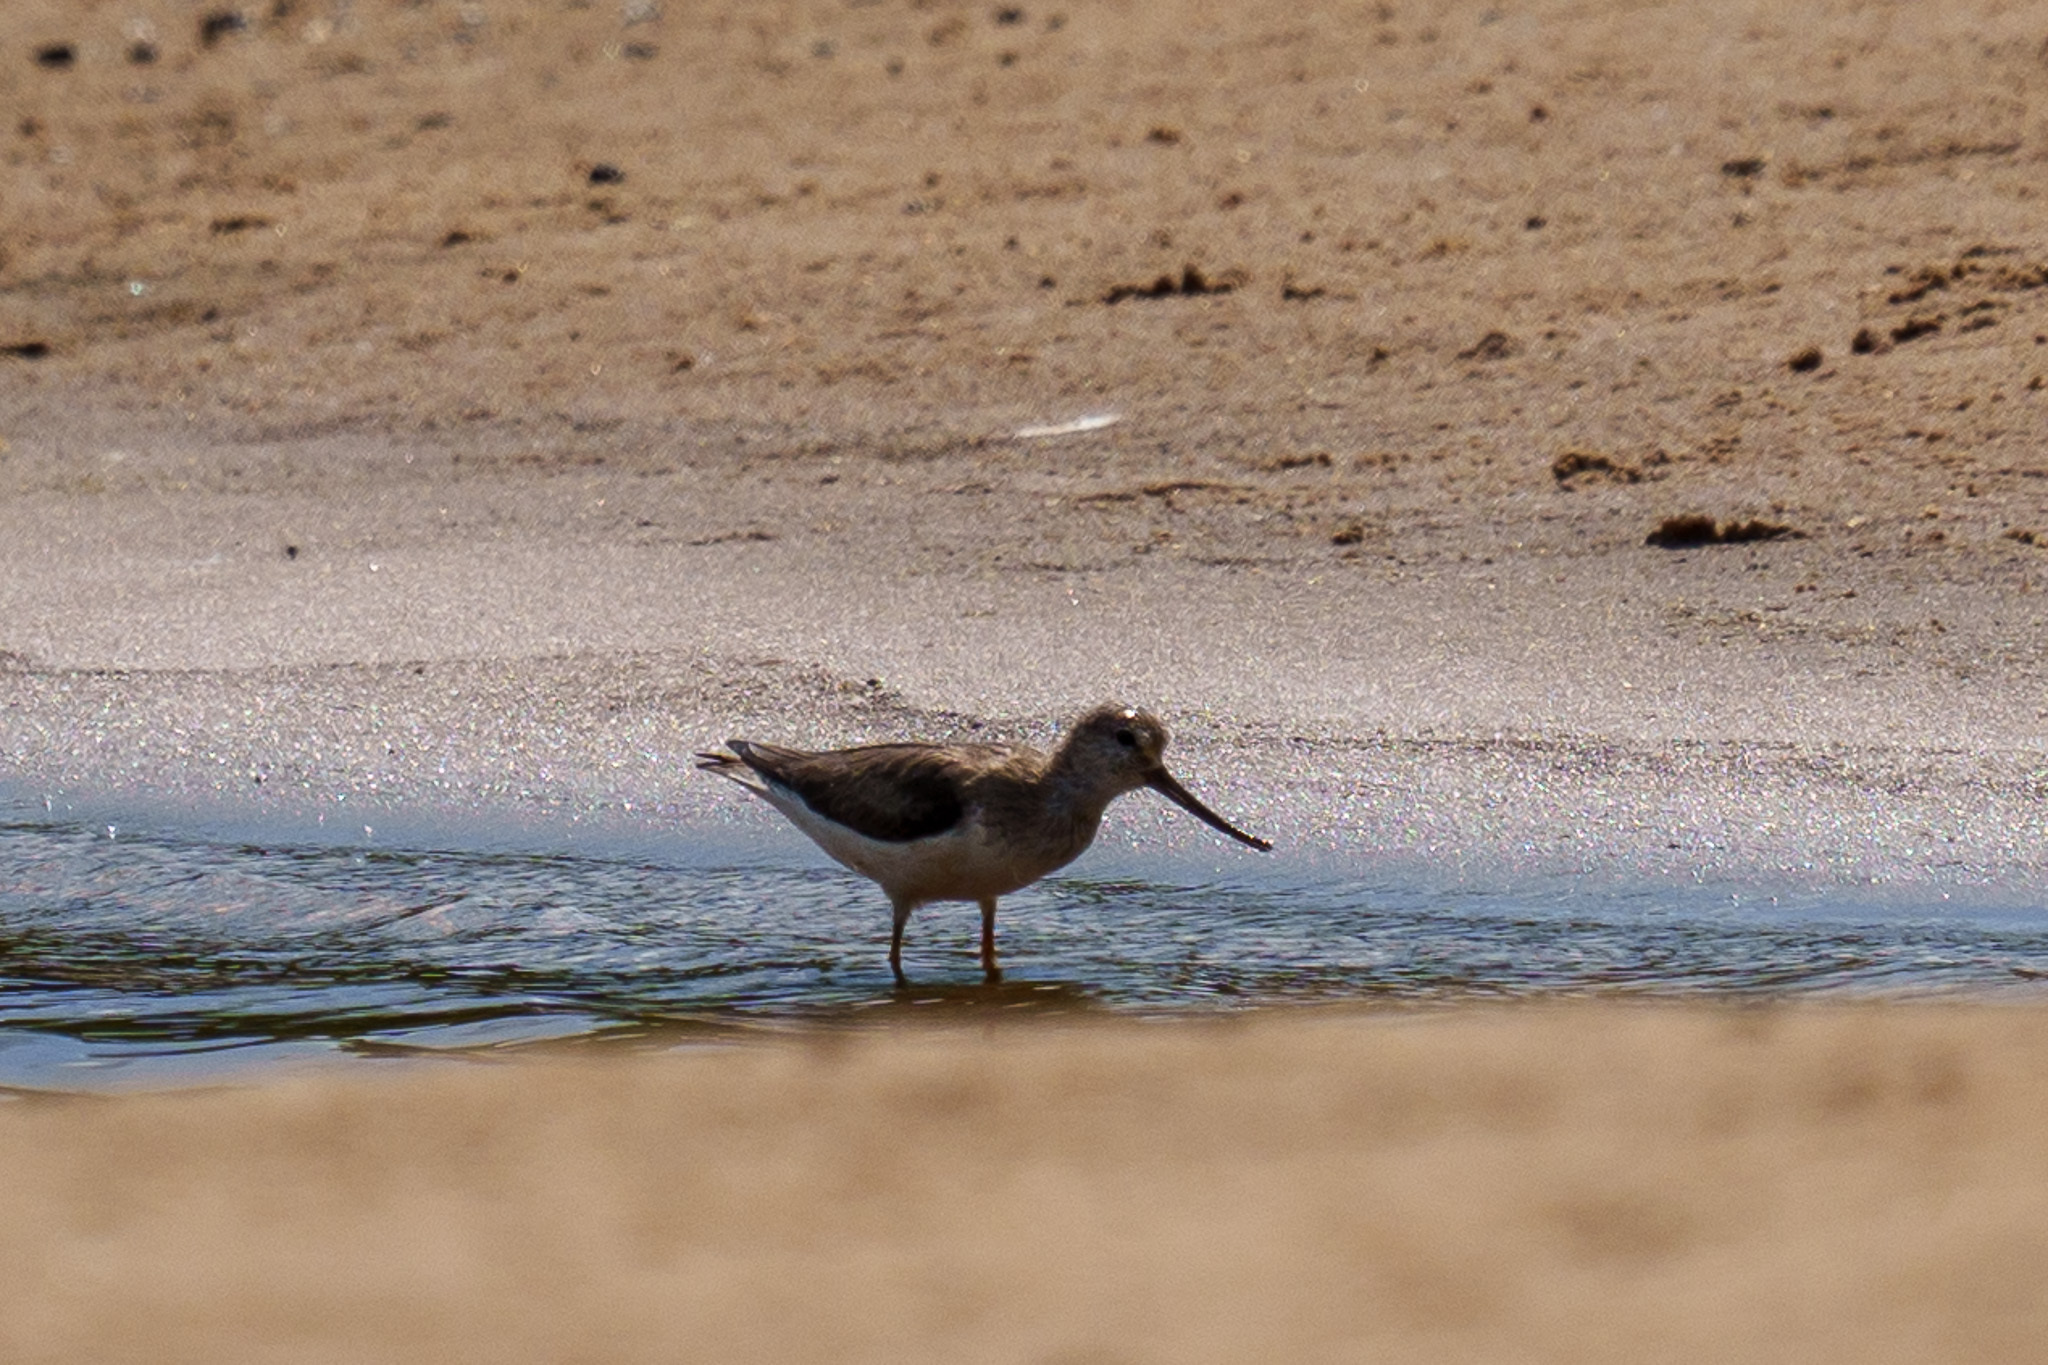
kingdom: Animalia
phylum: Chordata
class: Aves
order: Charadriiformes
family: Scolopacidae
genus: Xenus
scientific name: Xenus cinereus
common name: Terek sandpiper
